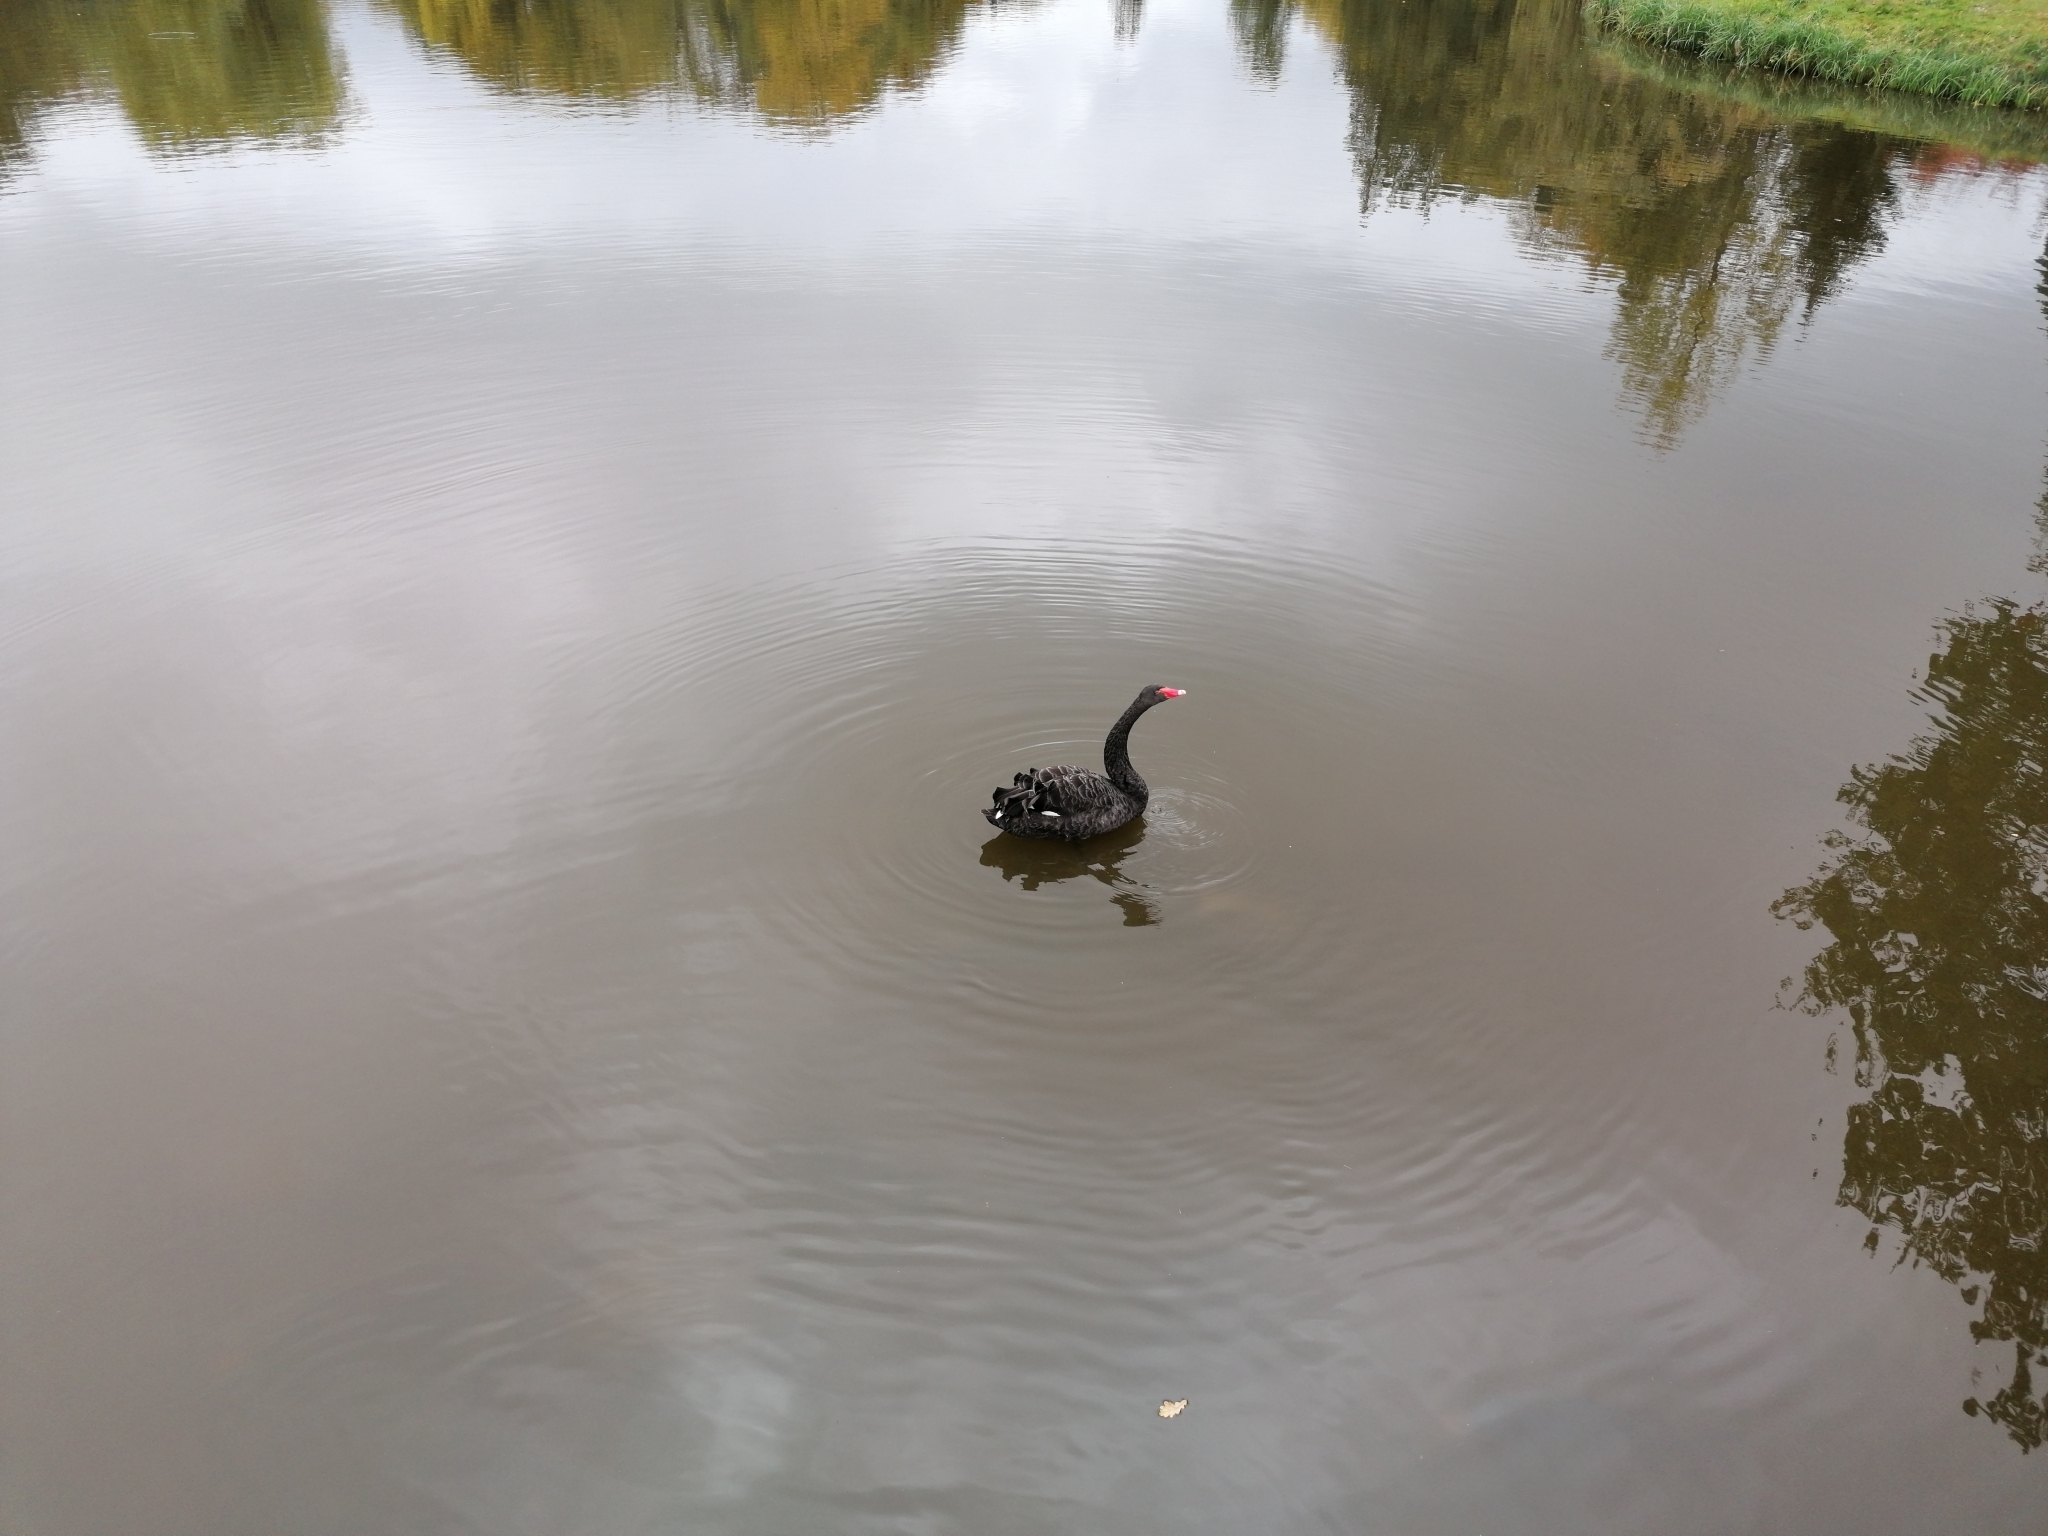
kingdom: Animalia
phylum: Chordata
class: Aves
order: Anseriformes
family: Anatidae
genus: Cygnus
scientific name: Cygnus atratus
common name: Black swan
